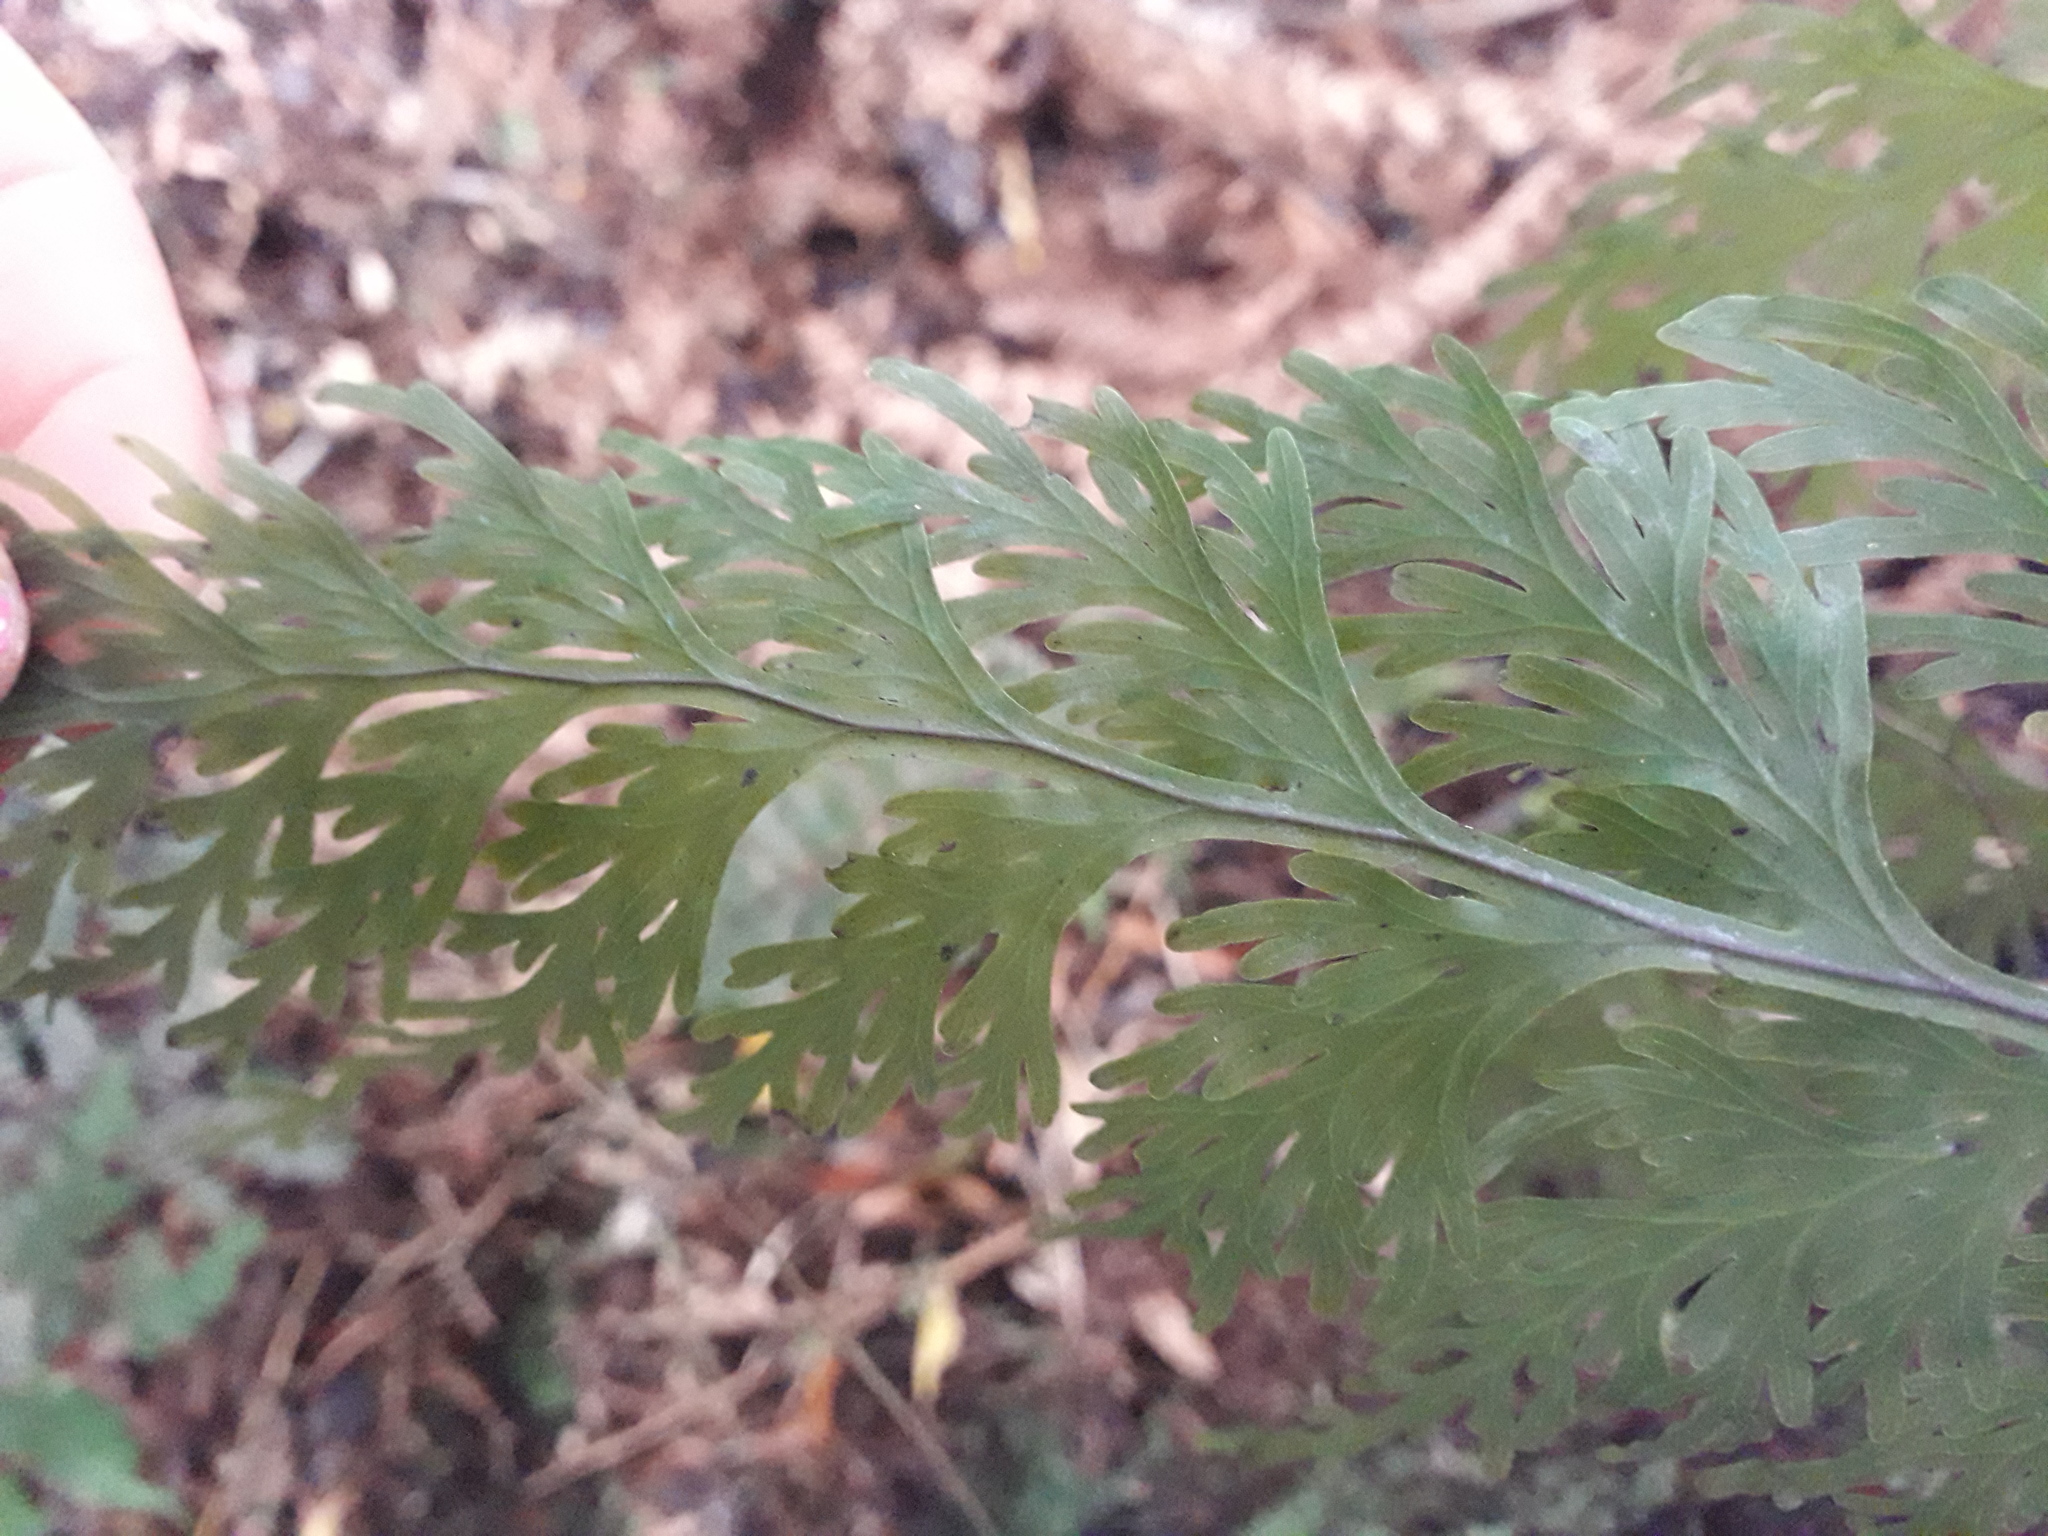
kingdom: Plantae
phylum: Tracheophyta
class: Polypodiopsida
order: Hymenophyllales
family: Hymenophyllaceae
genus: Hymenophyllum
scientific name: Hymenophyllum dilatatum
